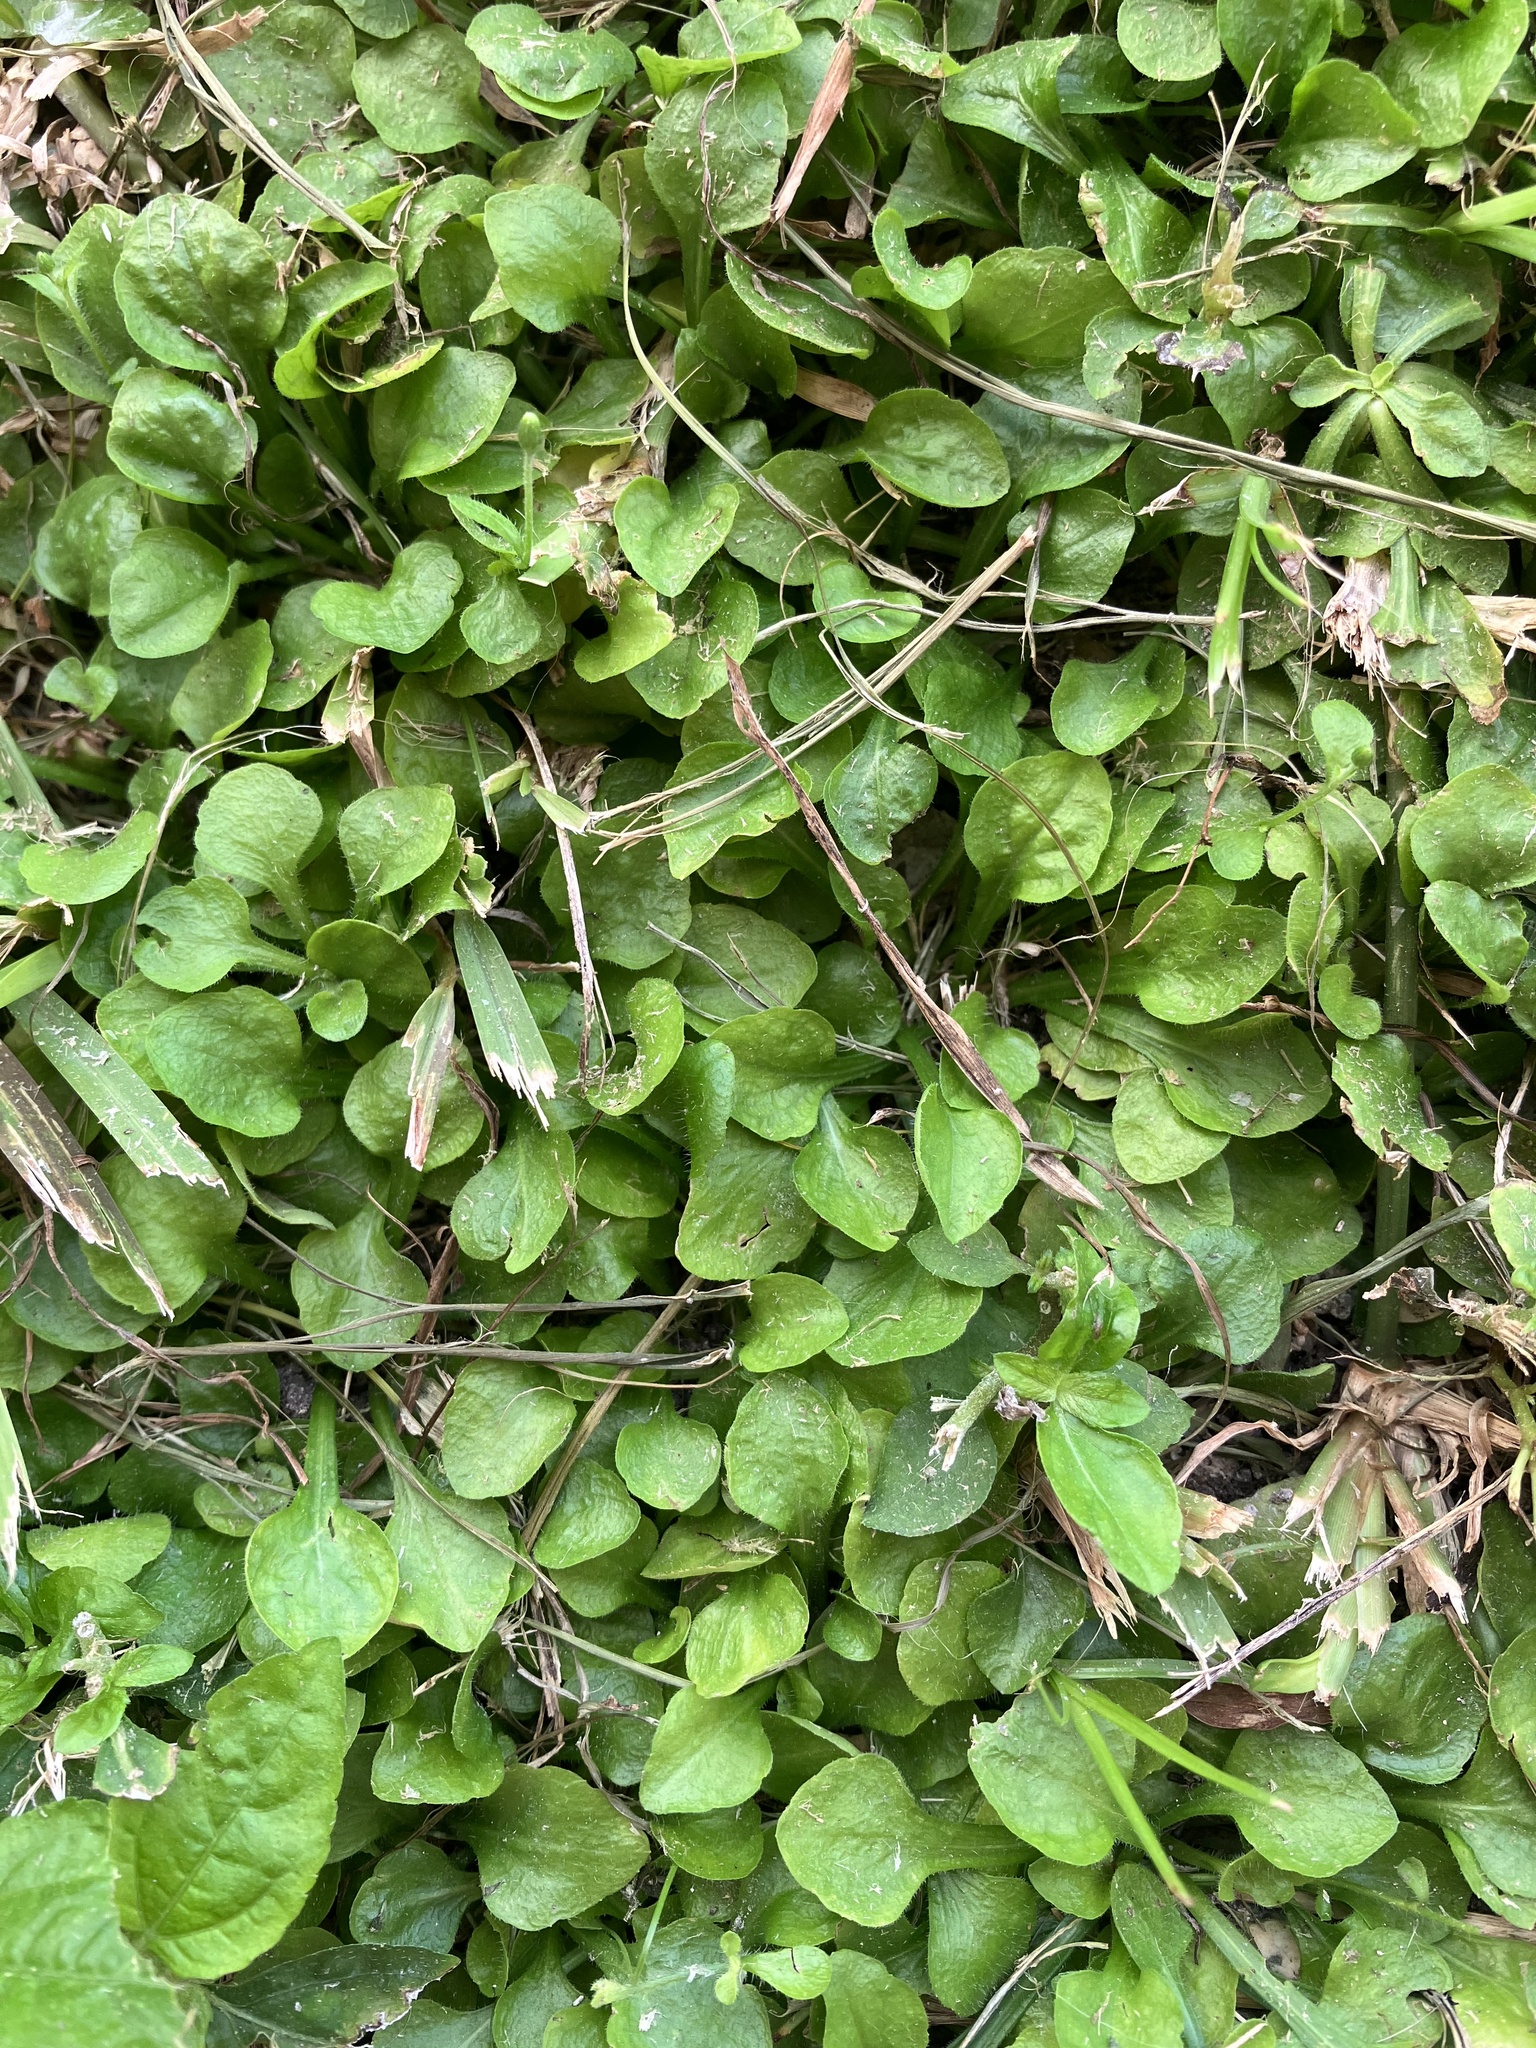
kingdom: Plantae
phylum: Tracheophyta
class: Magnoliopsida
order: Asterales
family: Asteraceae
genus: Erigeron
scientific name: Erigeron bellioides
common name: Bellorita
